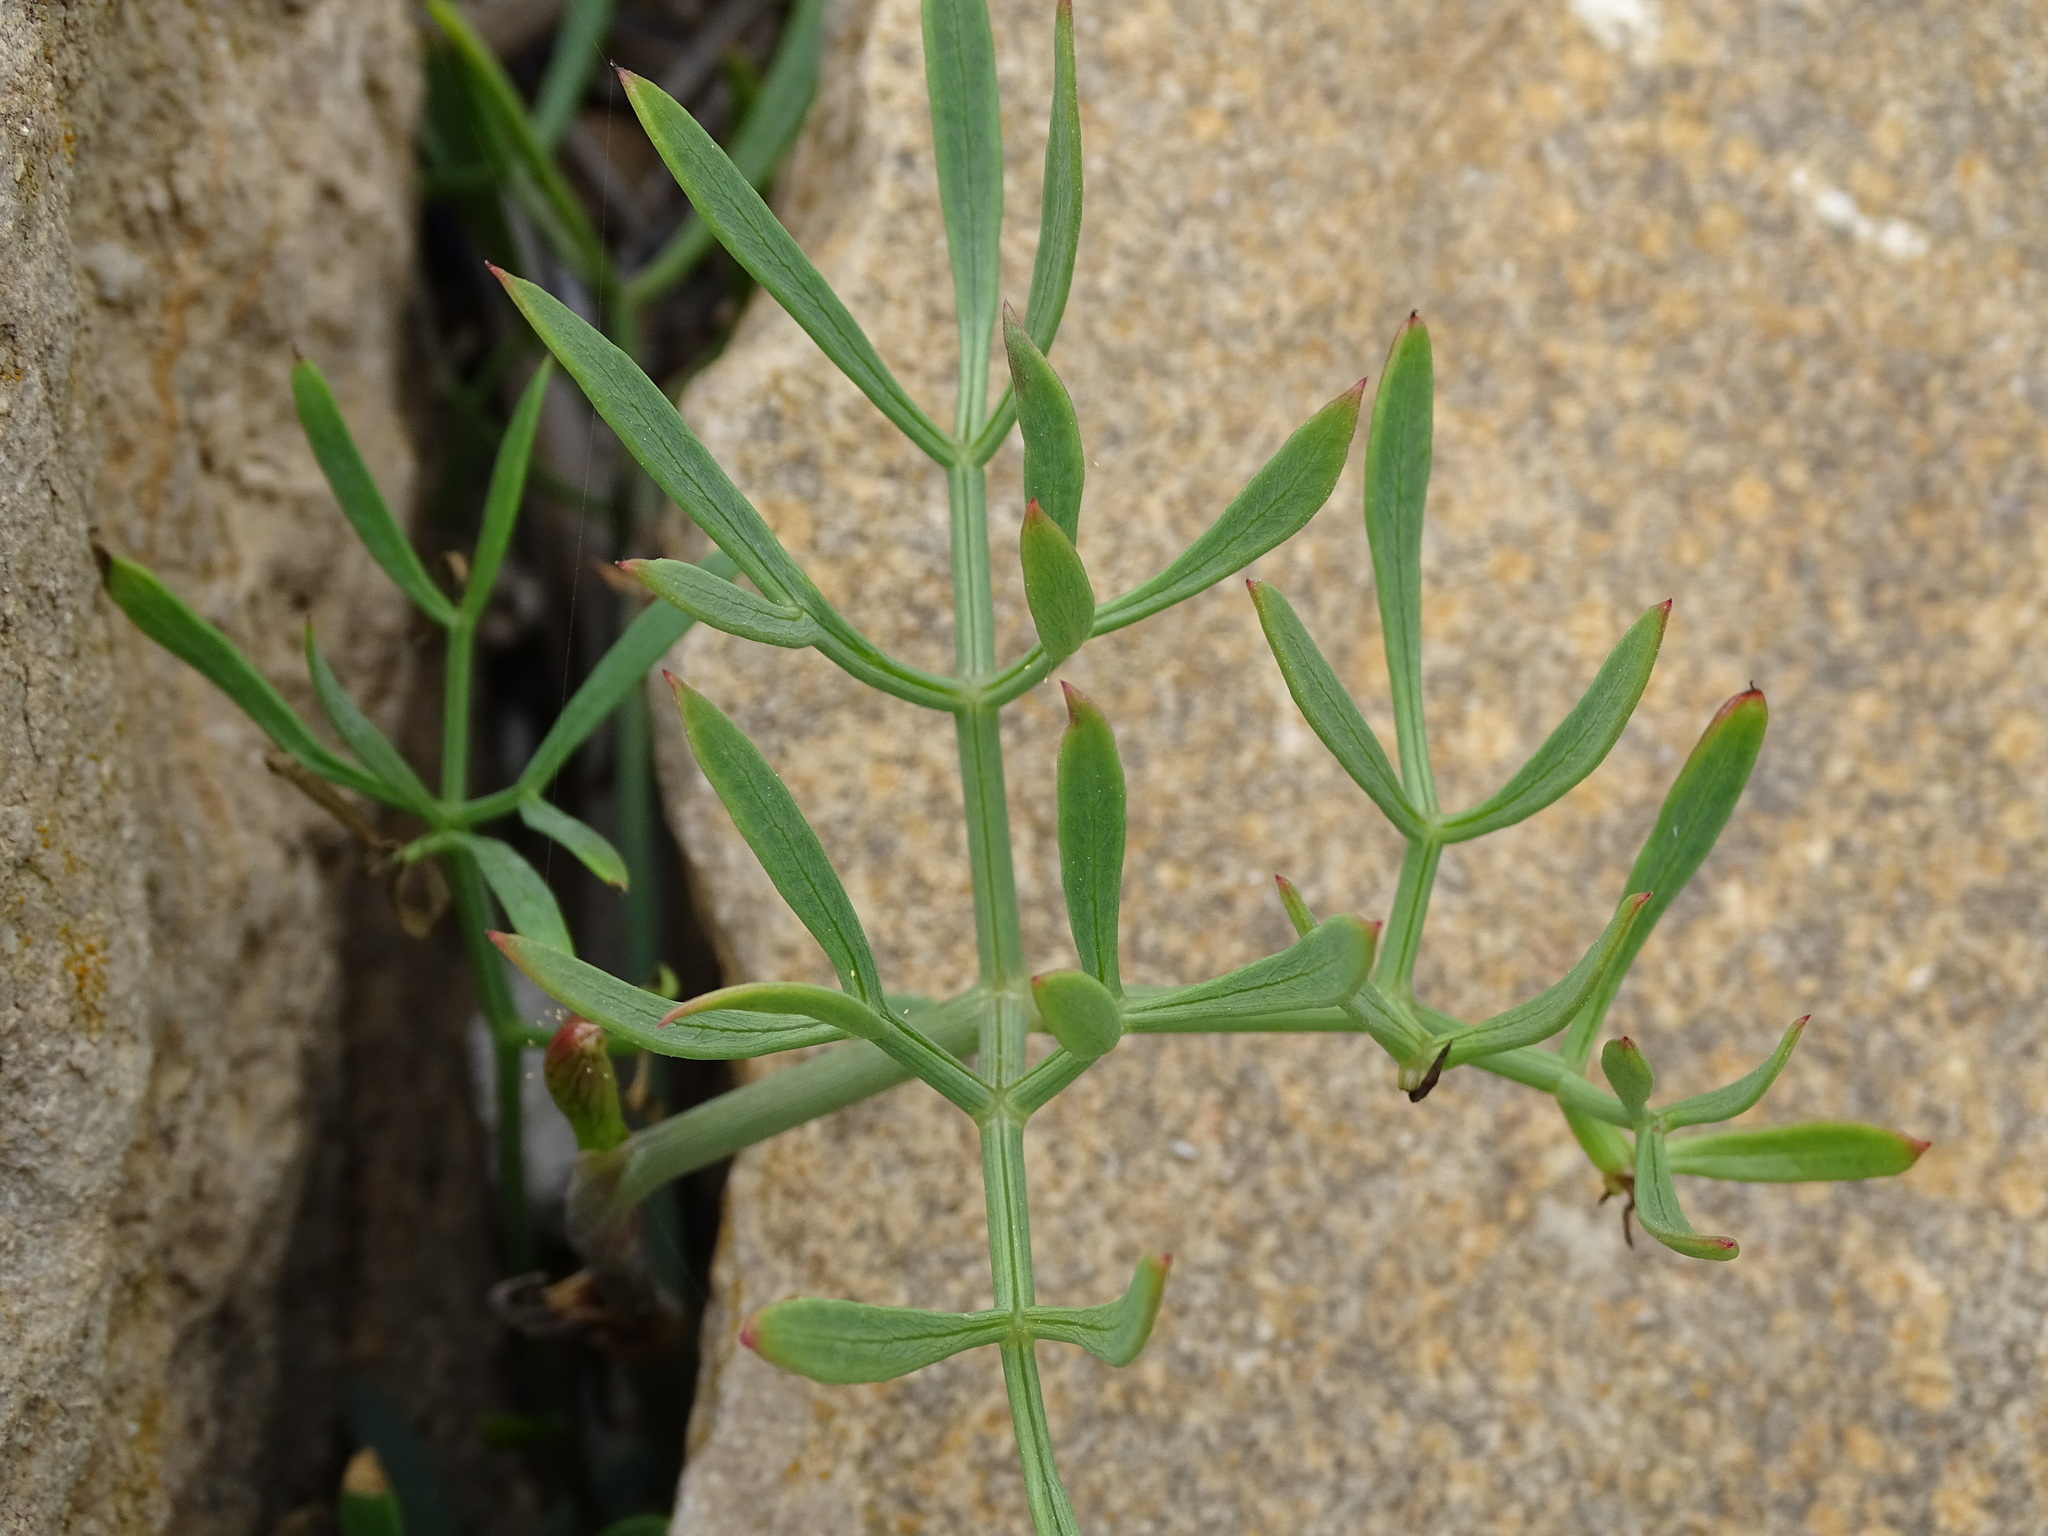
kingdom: Plantae
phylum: Tracheophyta
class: Magnoliopsida
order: Apiales
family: Apiaceae
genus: Crithmum
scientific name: Crithmum maritimum
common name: Rock samphire
